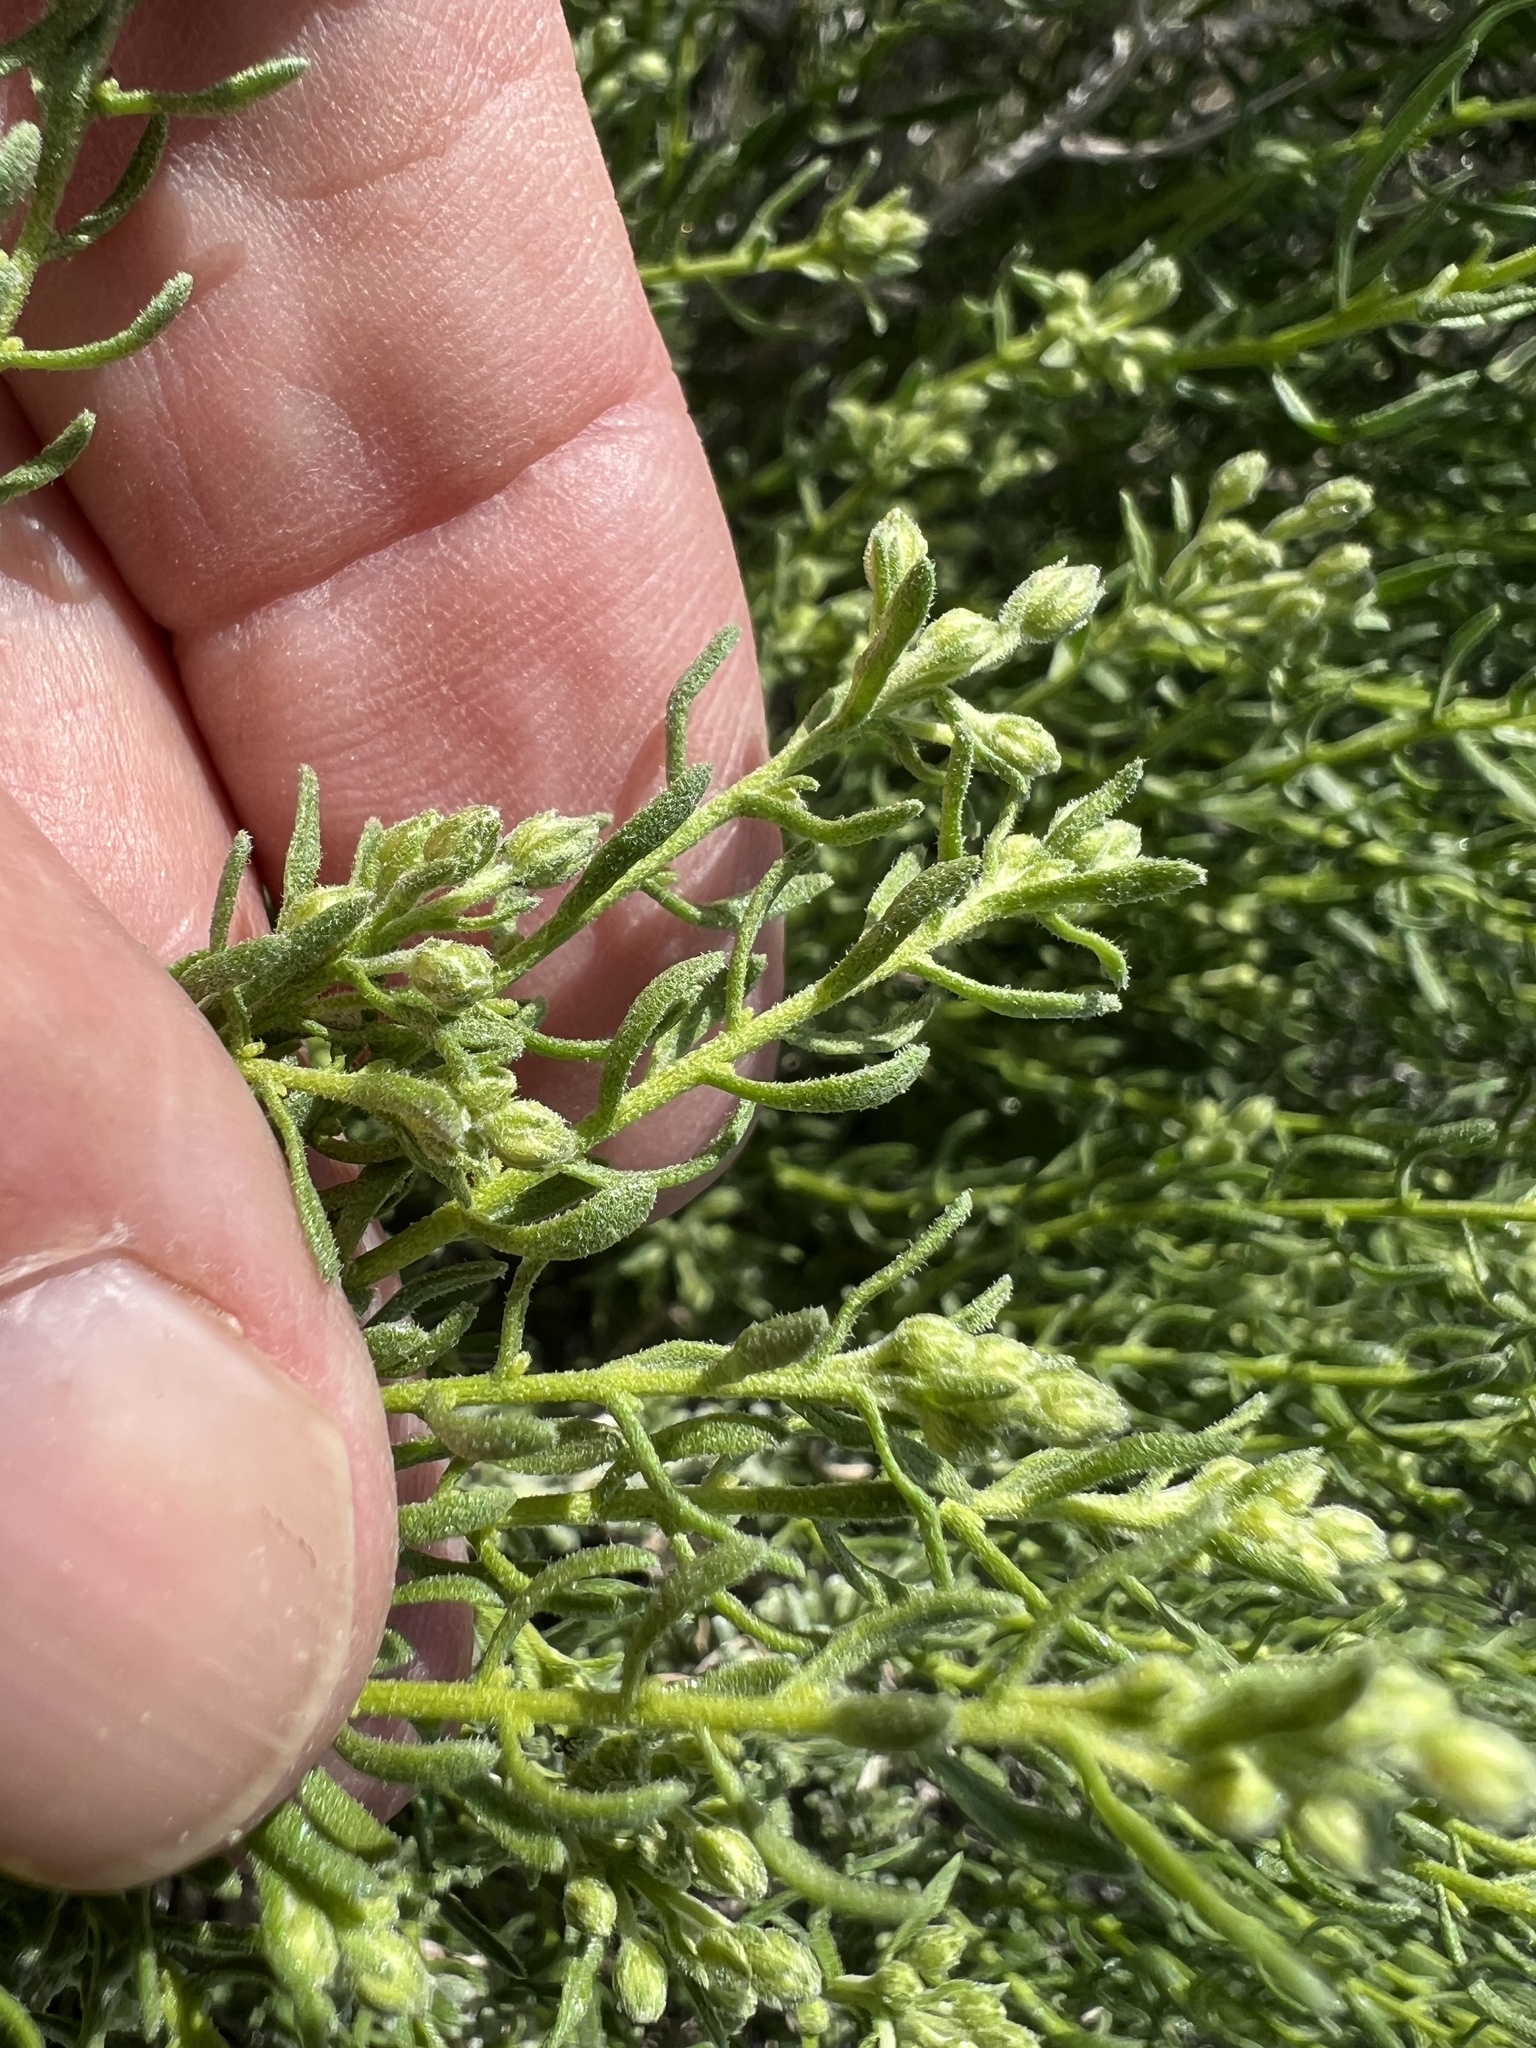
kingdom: Plantae
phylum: Tracheophyta
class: Magnoliopsida
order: Asterales
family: Asteraceae
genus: Ericameria
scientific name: Ericameria cooperi
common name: Cooper's goldenbush
